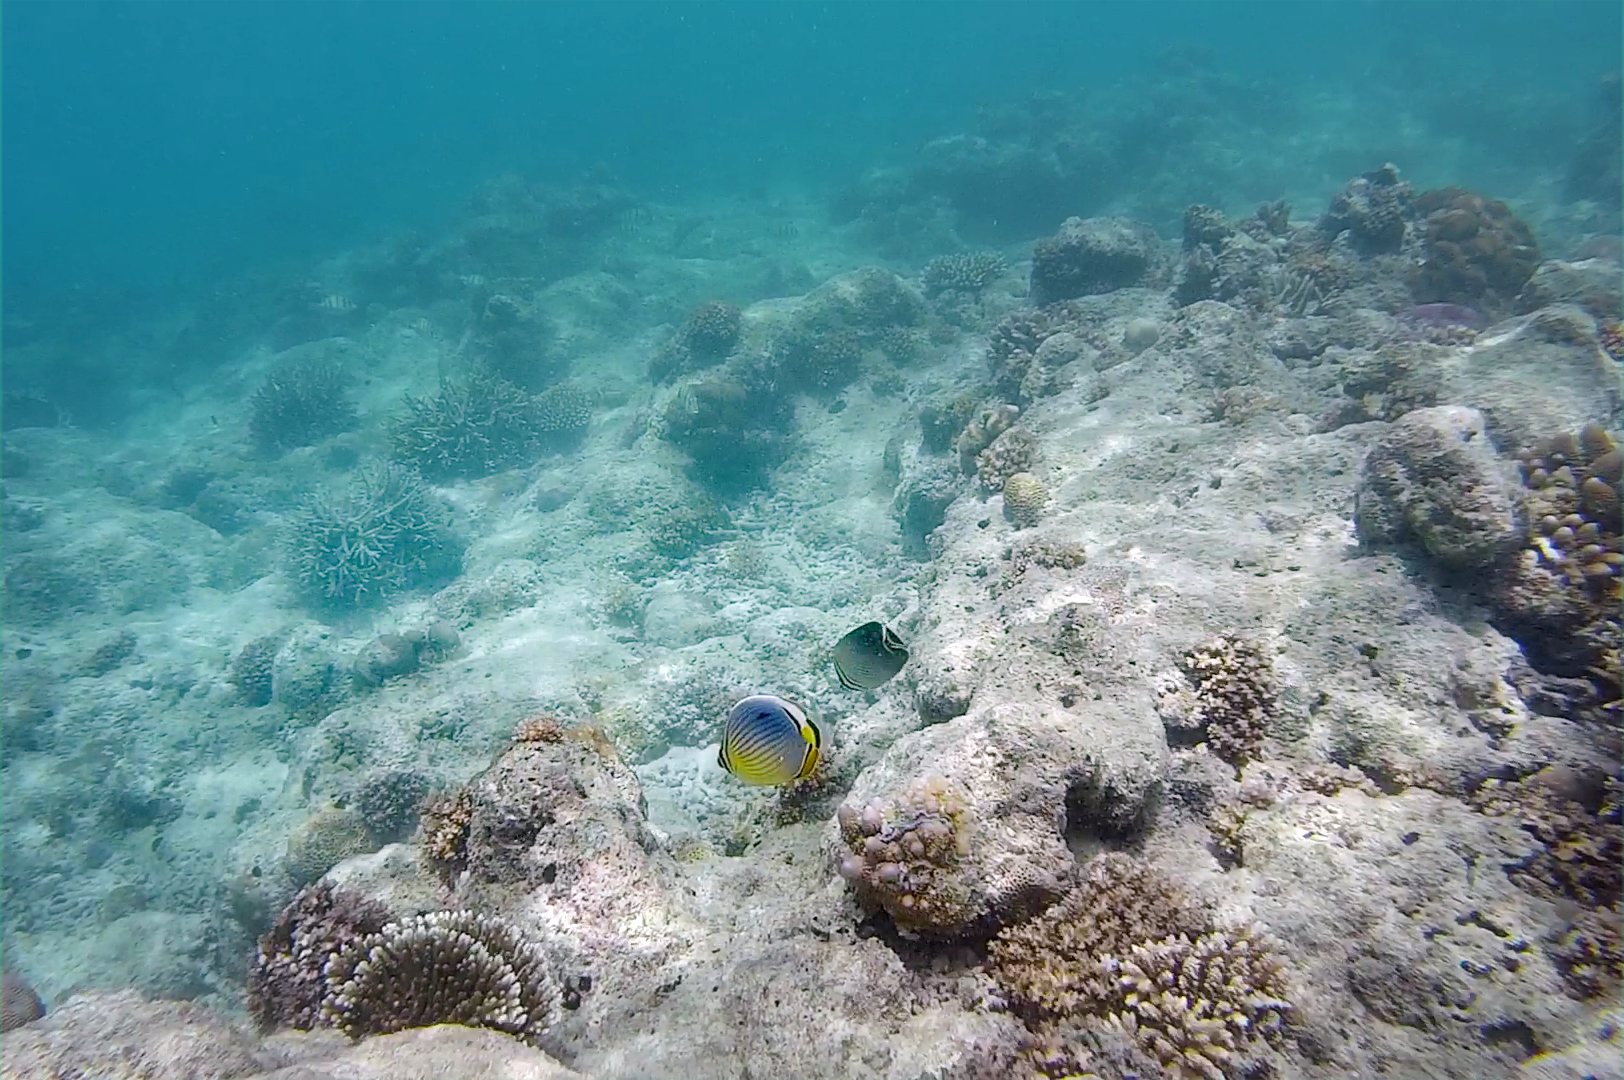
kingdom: Animalia
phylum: Chordata
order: Perciformes
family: Chaetodontidae
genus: Chaetodon
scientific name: Chaetodon trifasciatus
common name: Redfin butterflyfish
